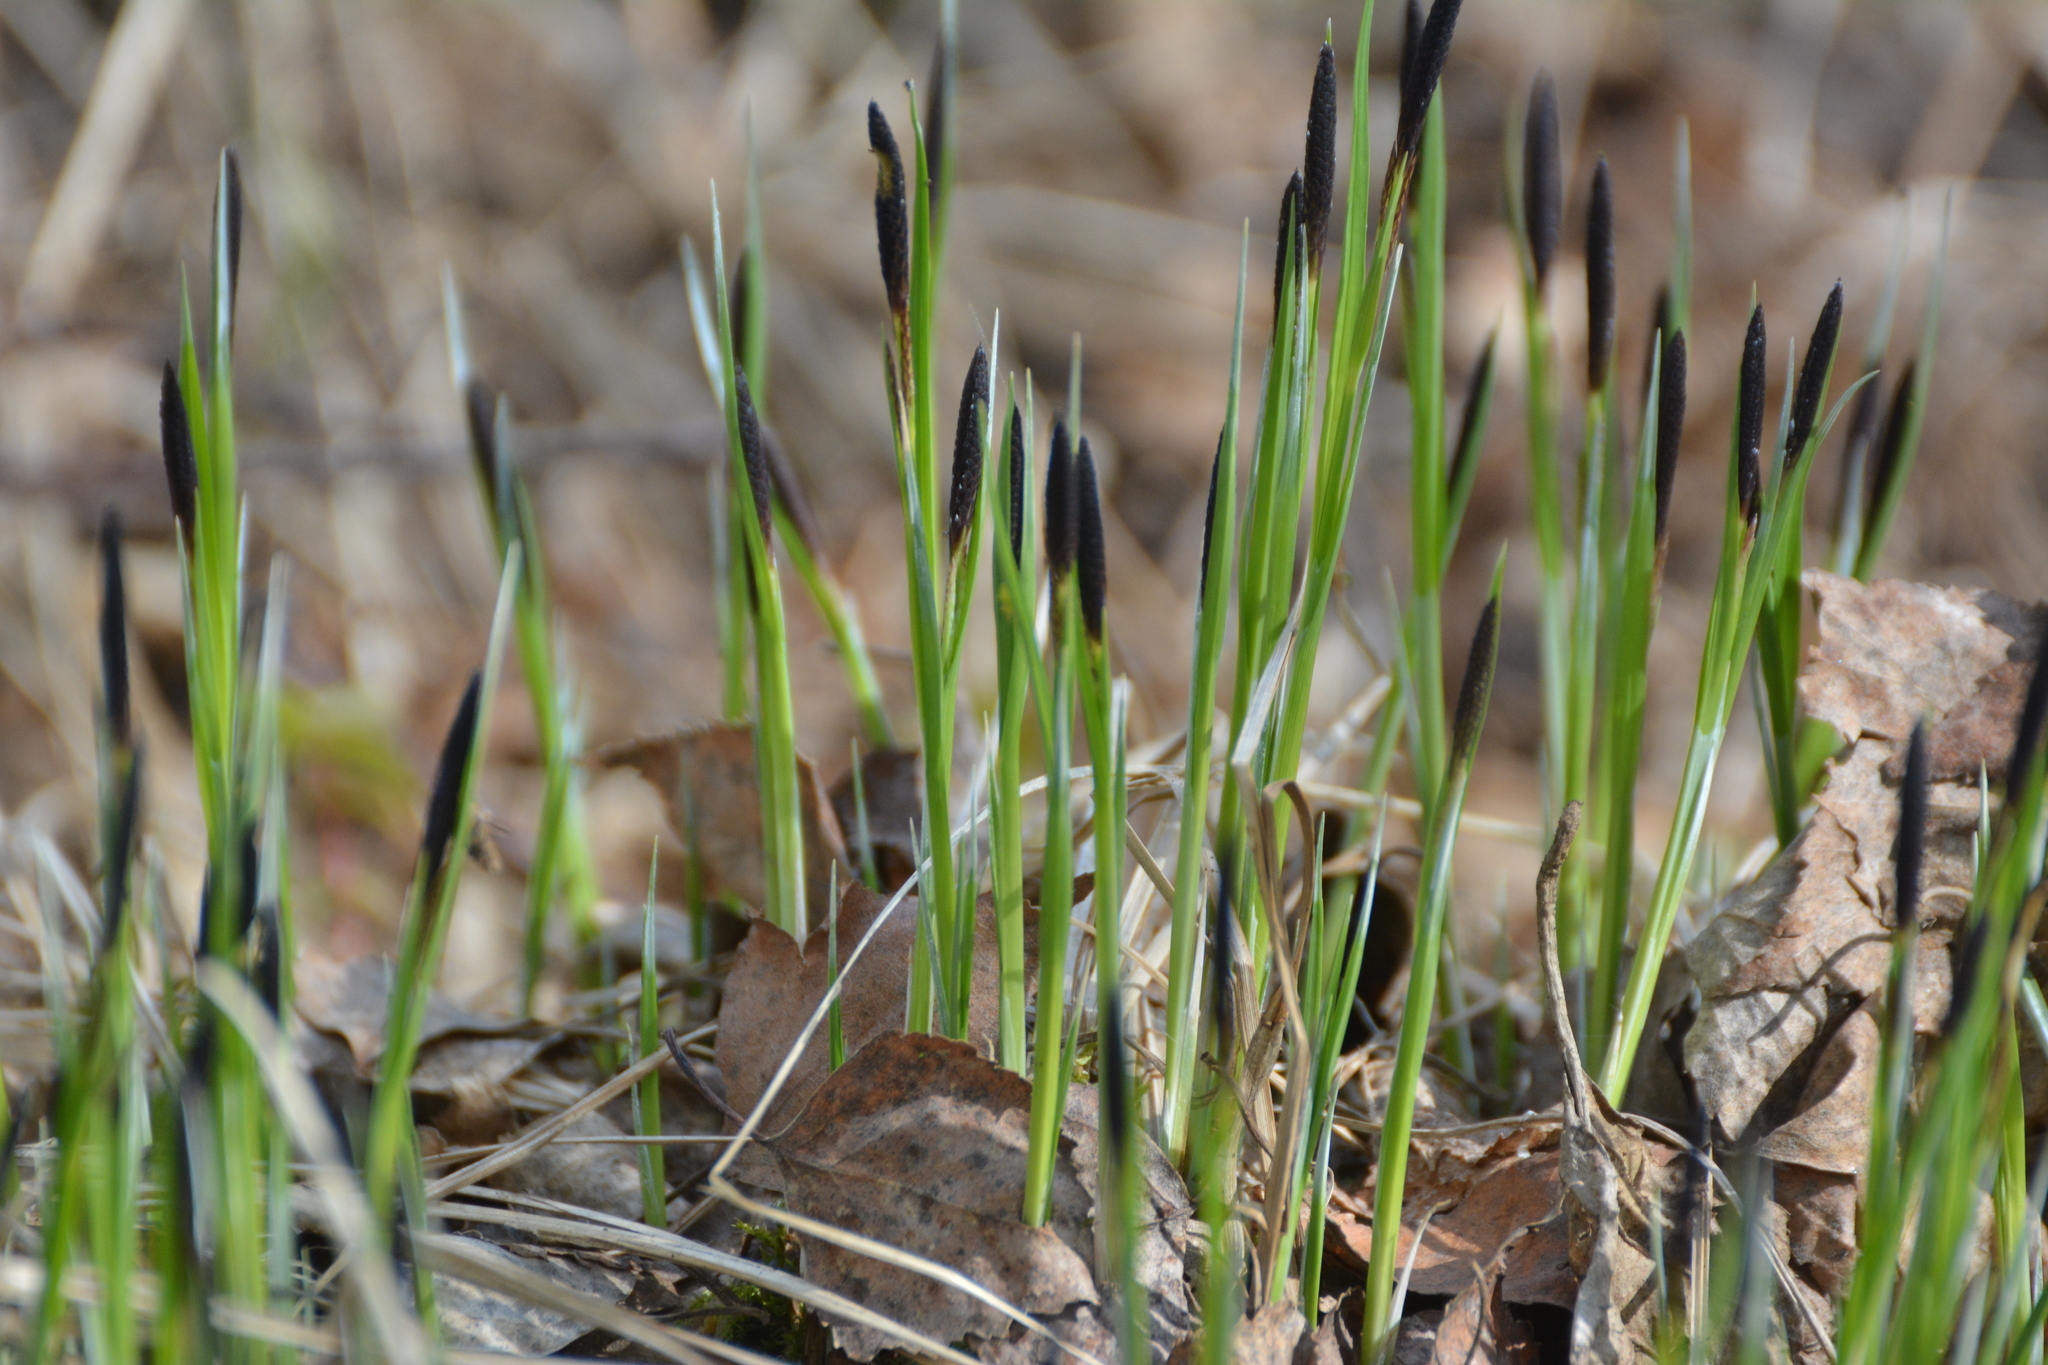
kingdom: Plantae
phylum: Tracheophyta
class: Liliopsida
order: Poales
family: Cyperaceae
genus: Carex
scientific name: Carex pilosa
